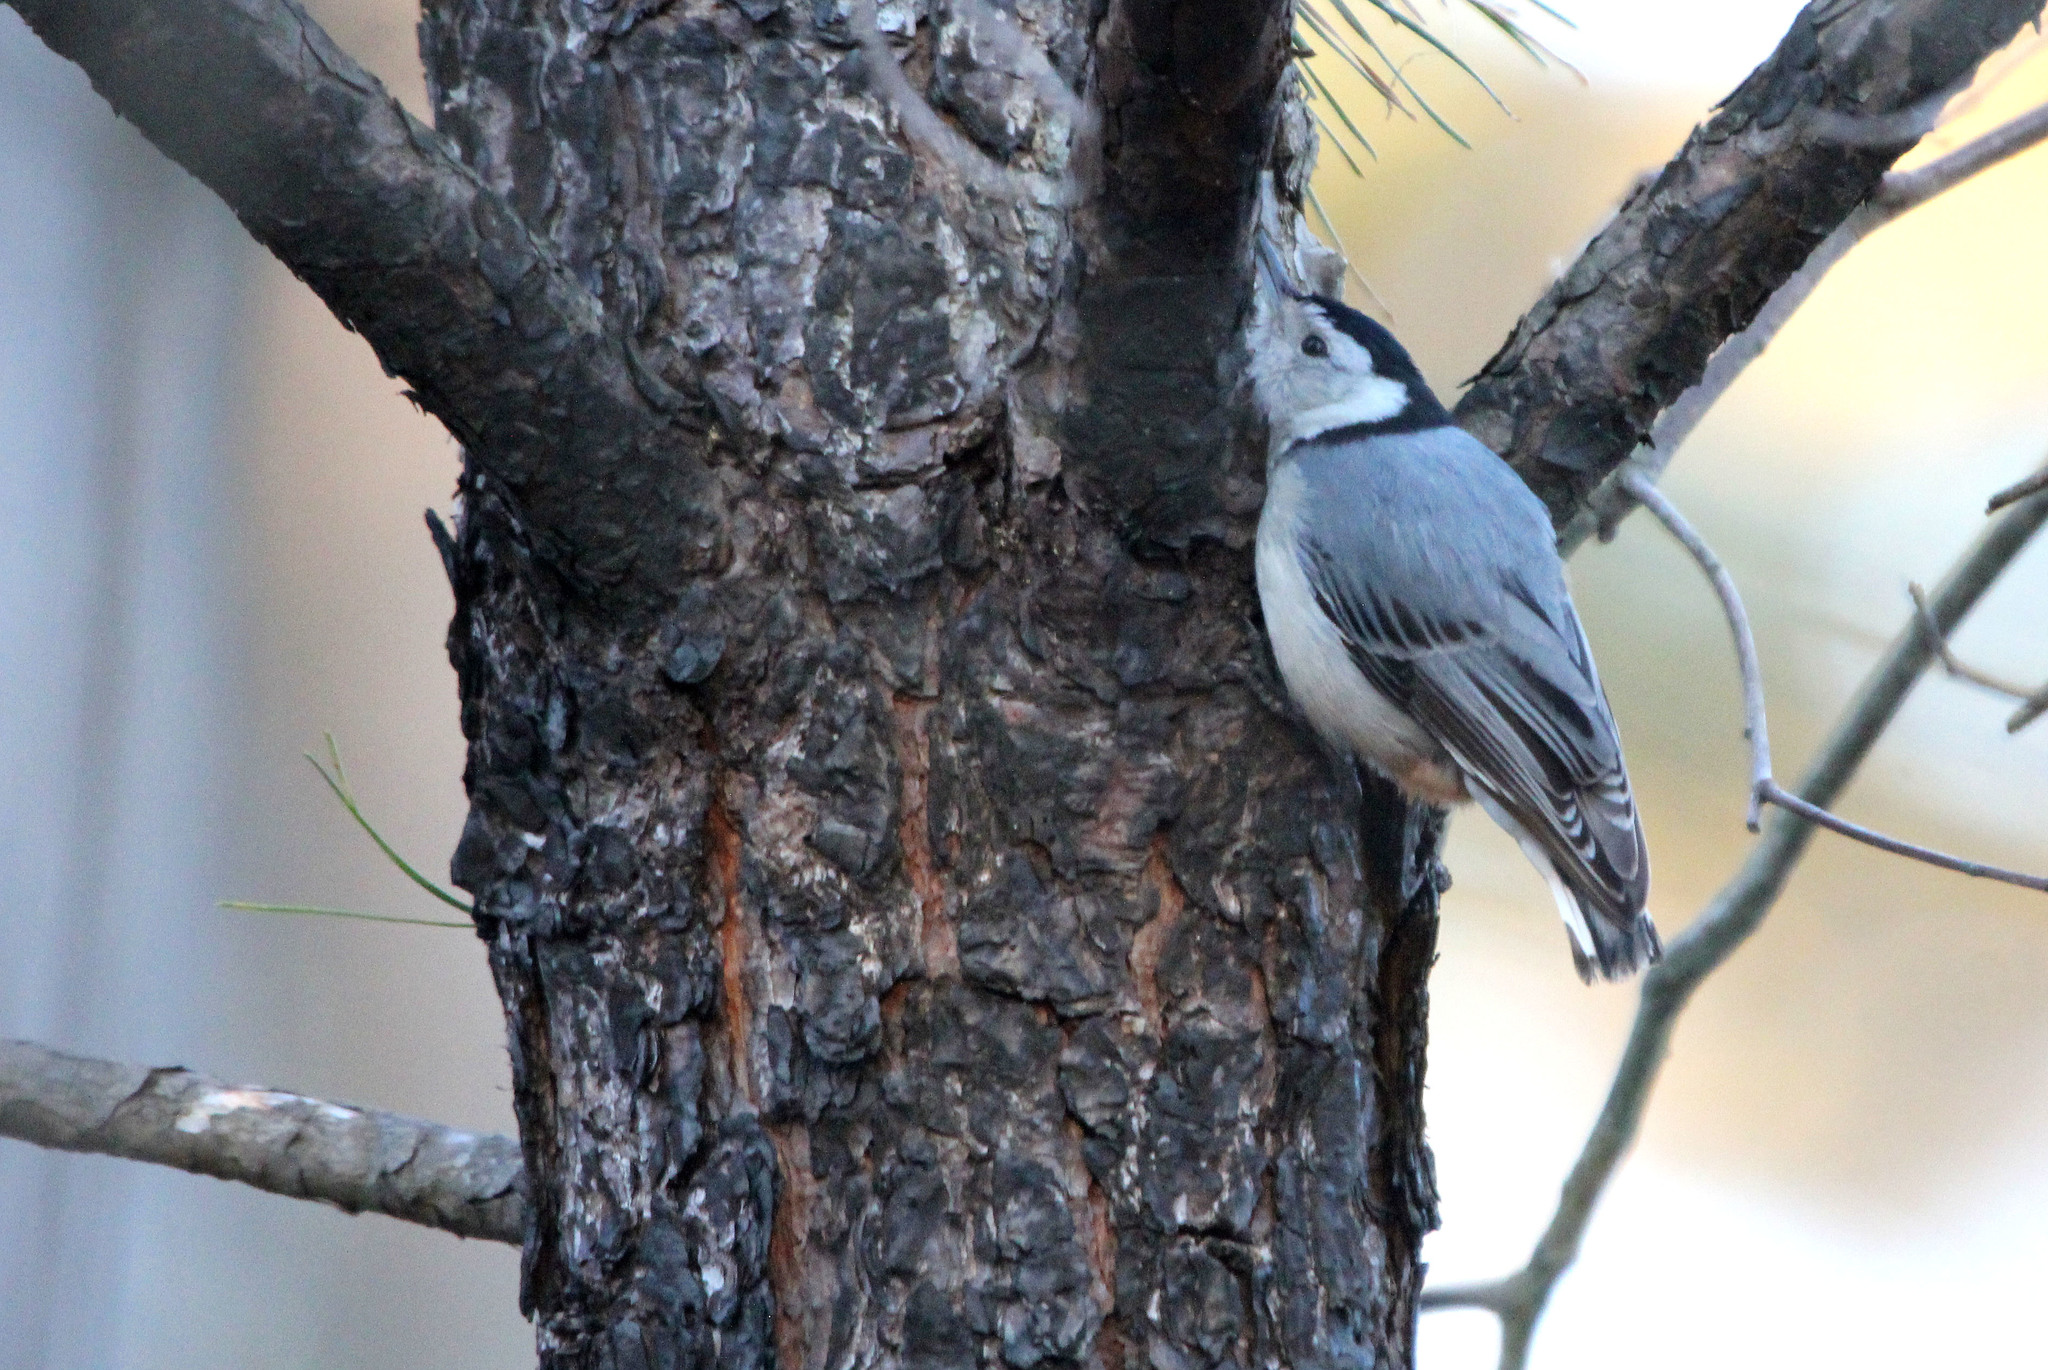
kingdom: Animalia
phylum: Chordata
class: Aves
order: Passeriformes
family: Sittidae
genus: Sitta
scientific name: Sitta carolinensis
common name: White-breasted nuthatch
